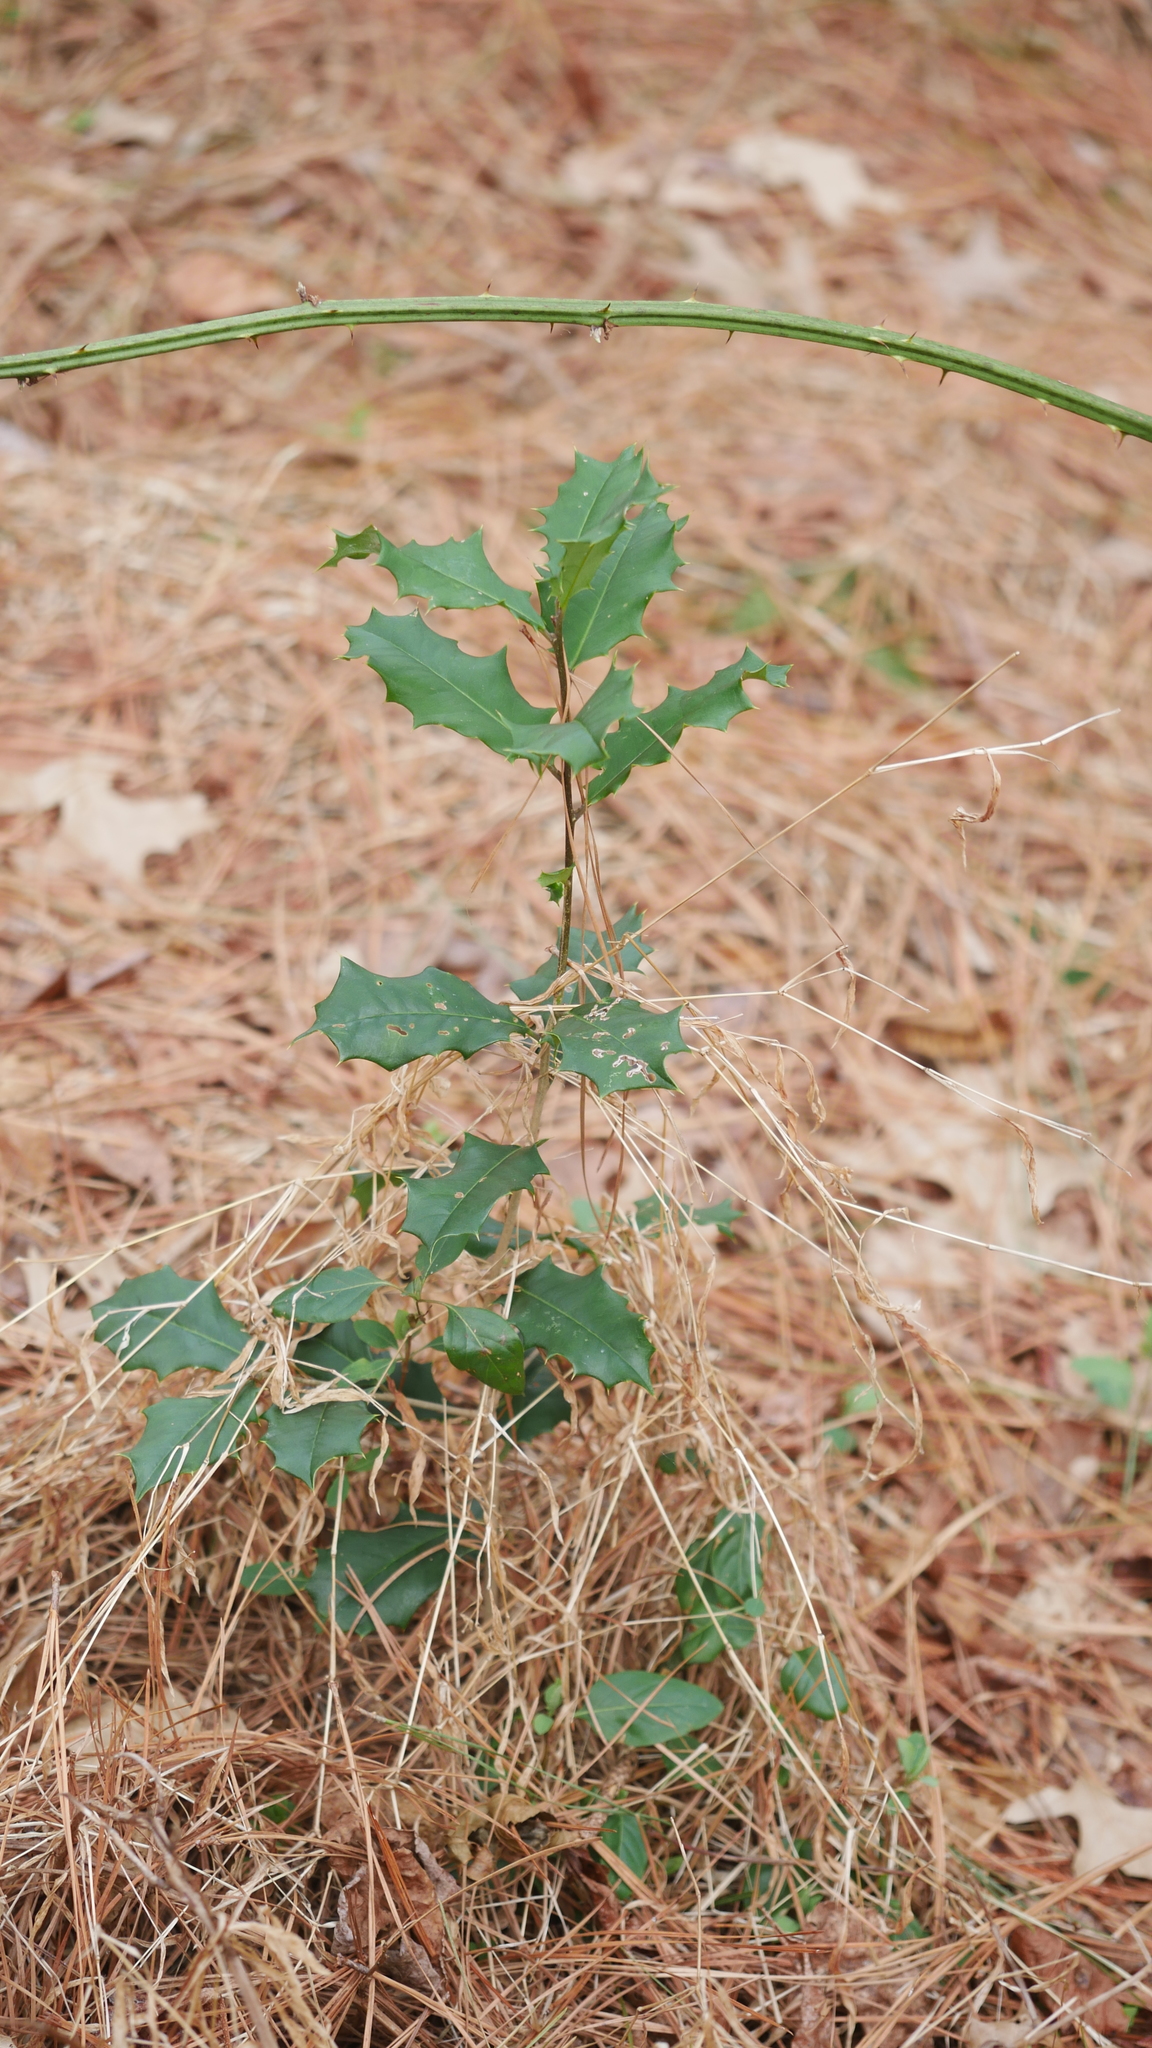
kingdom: Plantae
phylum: Tracheophyta
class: Magnoliopsida
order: Aquifoliales
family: Aquifoliaceae
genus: Ilex
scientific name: Ilex opaca
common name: American holly
